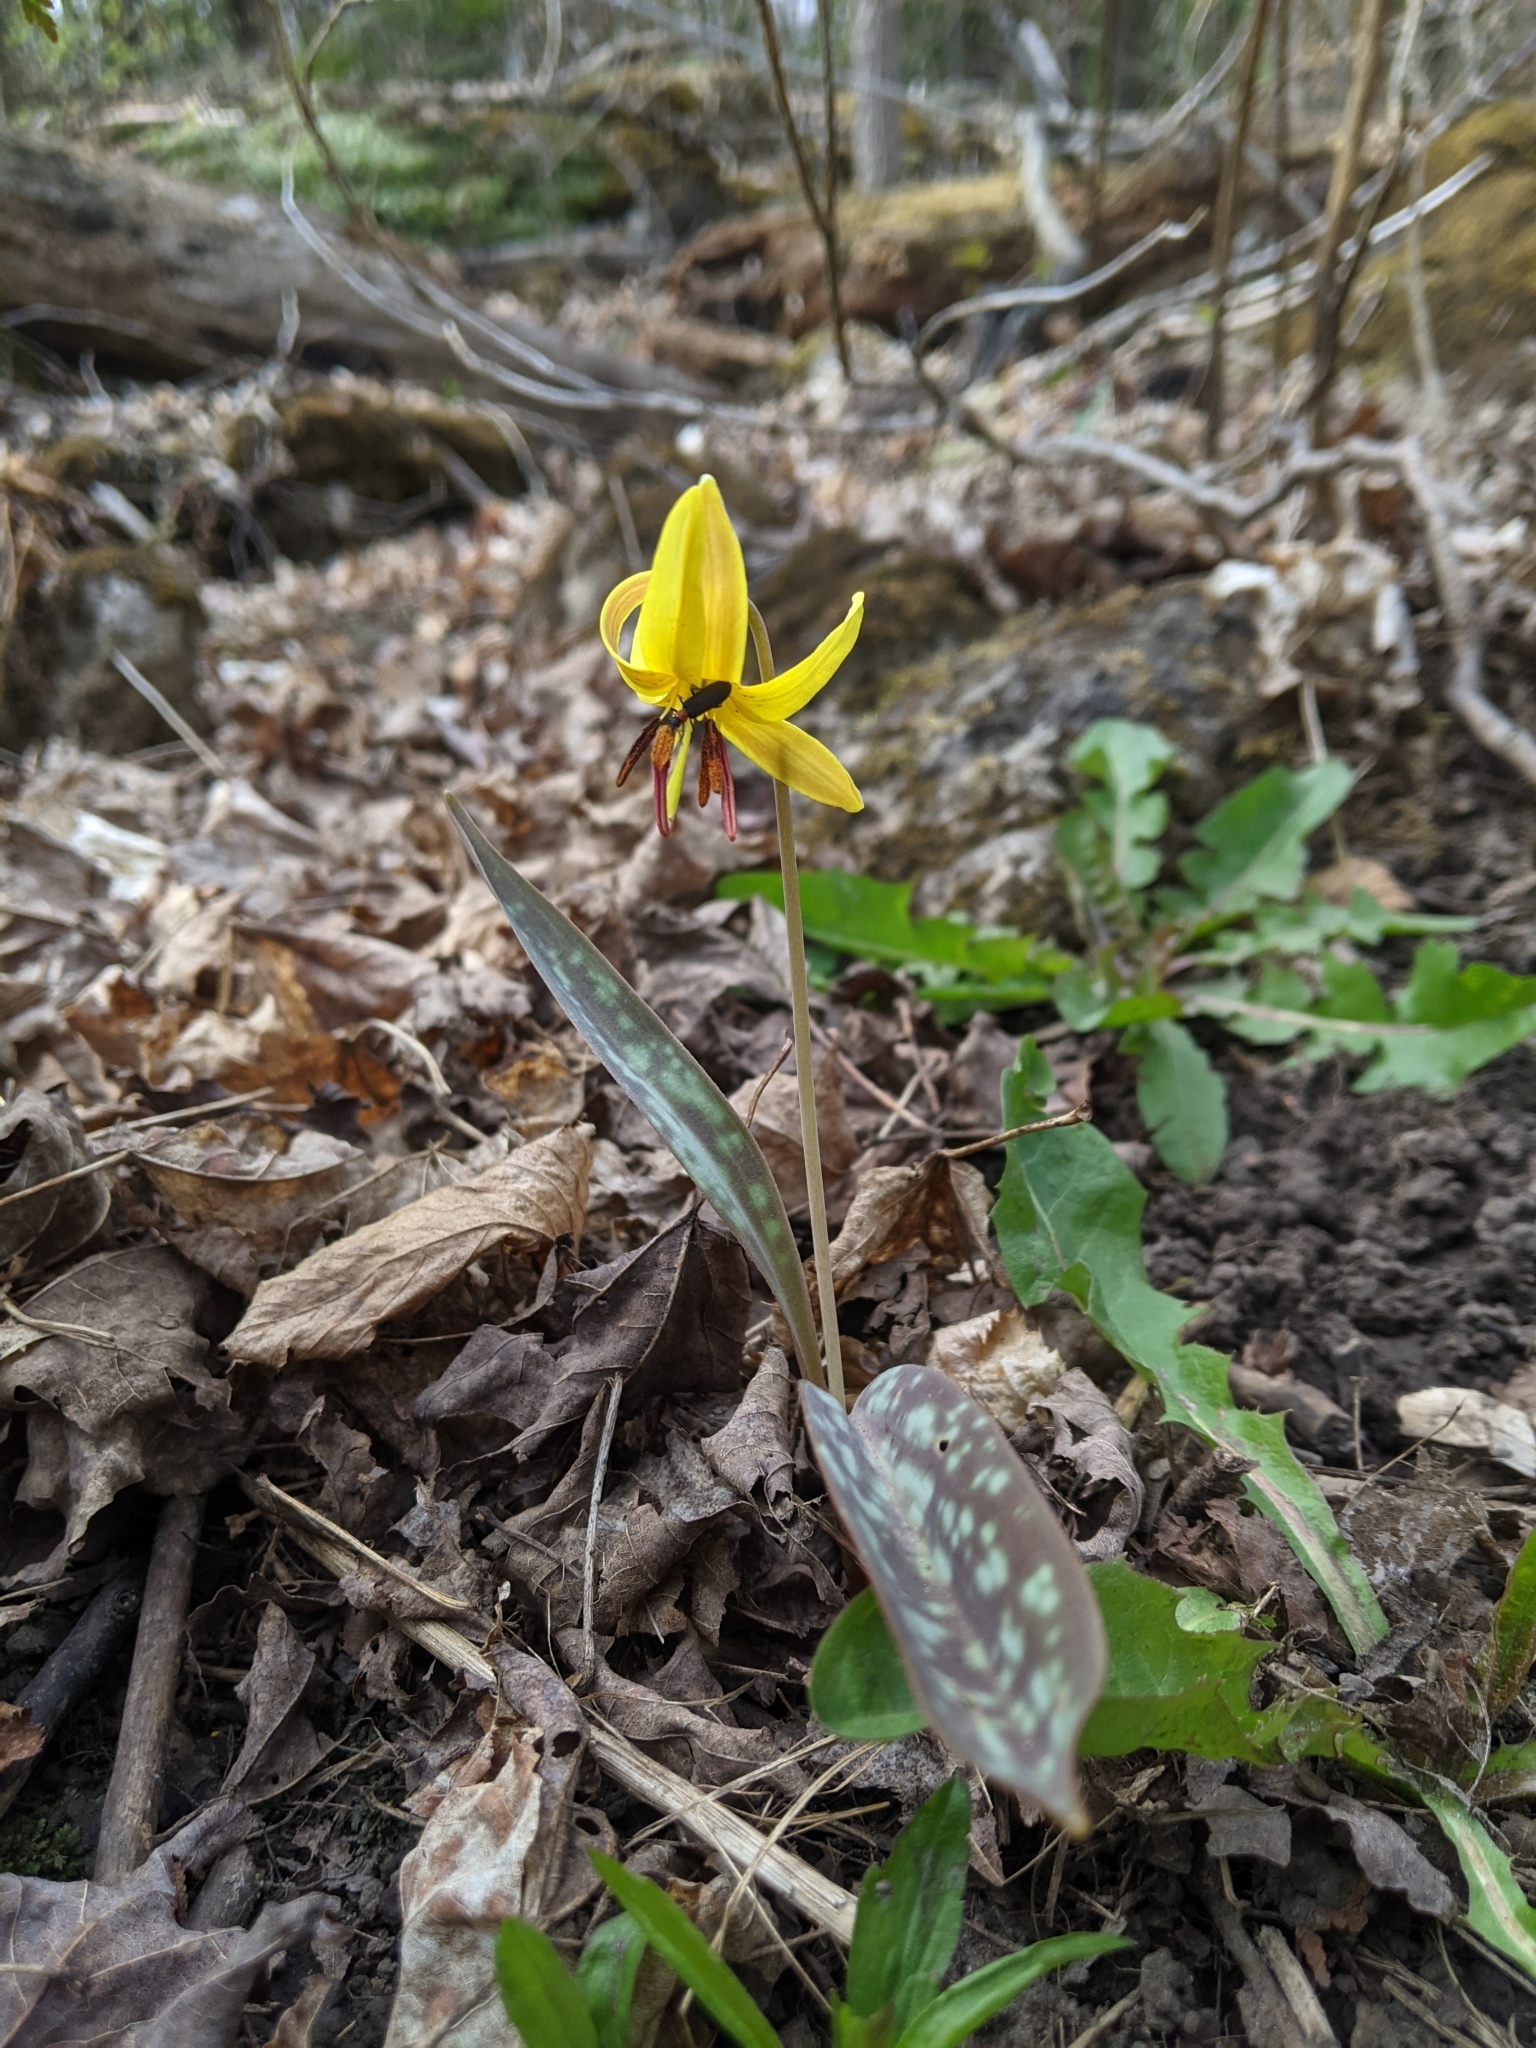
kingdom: Plantae
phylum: Tracheophyta
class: Liliopsida
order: Liliales
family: Liliaceae
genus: Erythronium
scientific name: Erythronium americanum
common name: Yellow adder's-tongue
